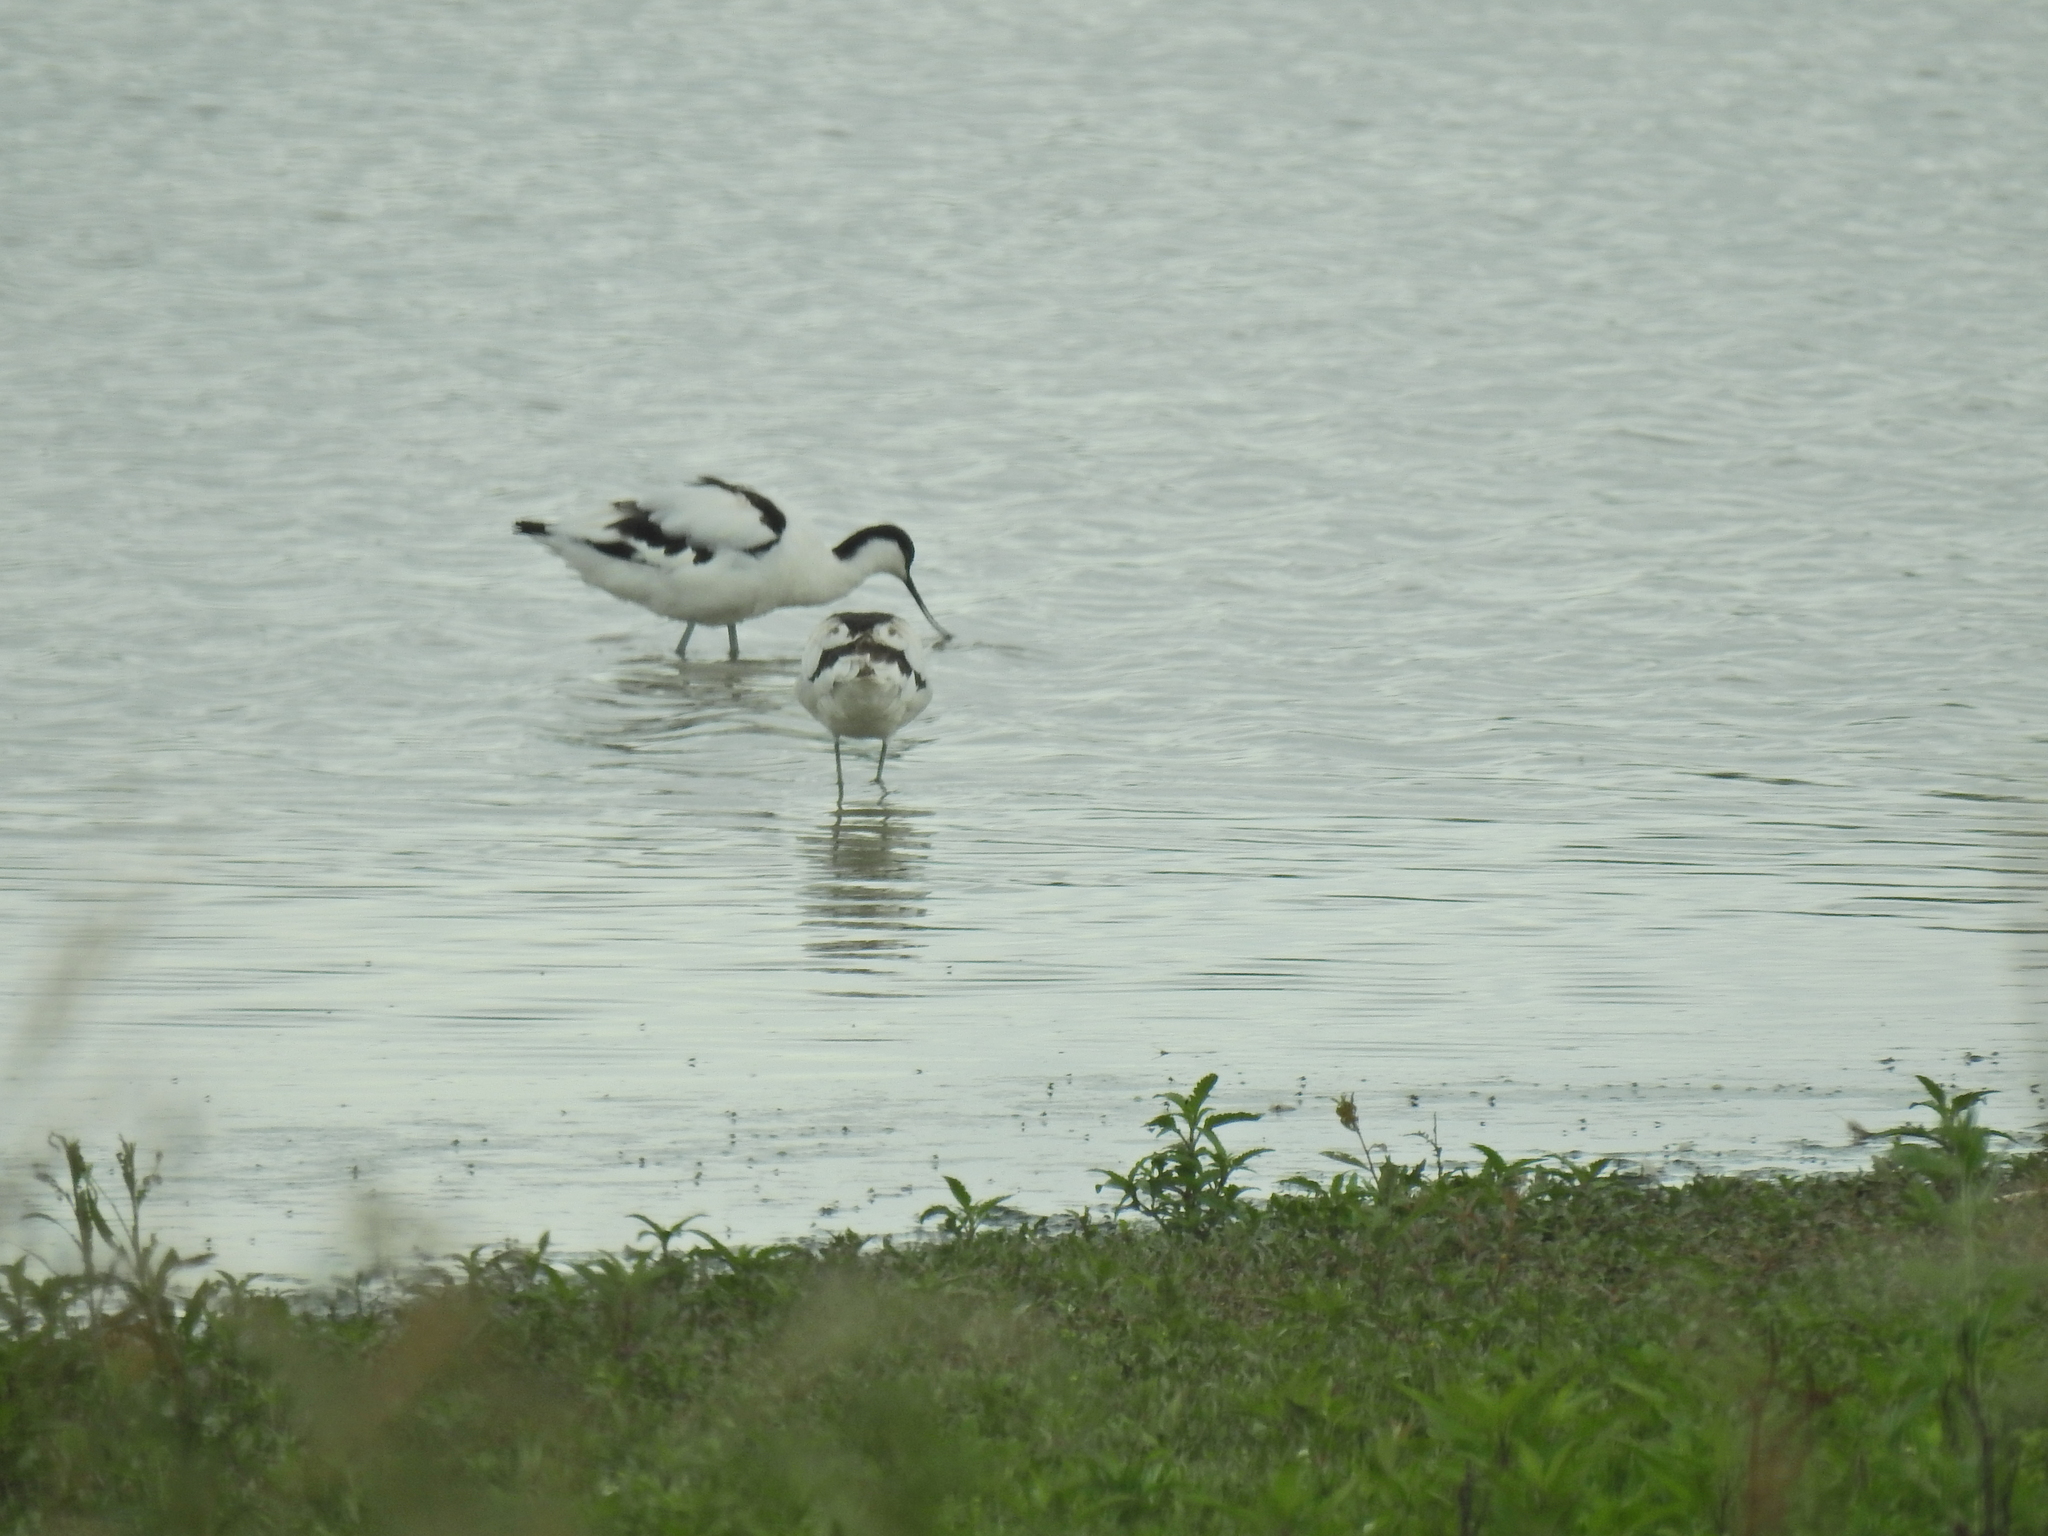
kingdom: Animalia
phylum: Chordata
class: Aves
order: Charadriiformes
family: Recurvirostridae
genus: Recurvirostra
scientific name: Recurvirostra avosetta
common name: Pied avocet
